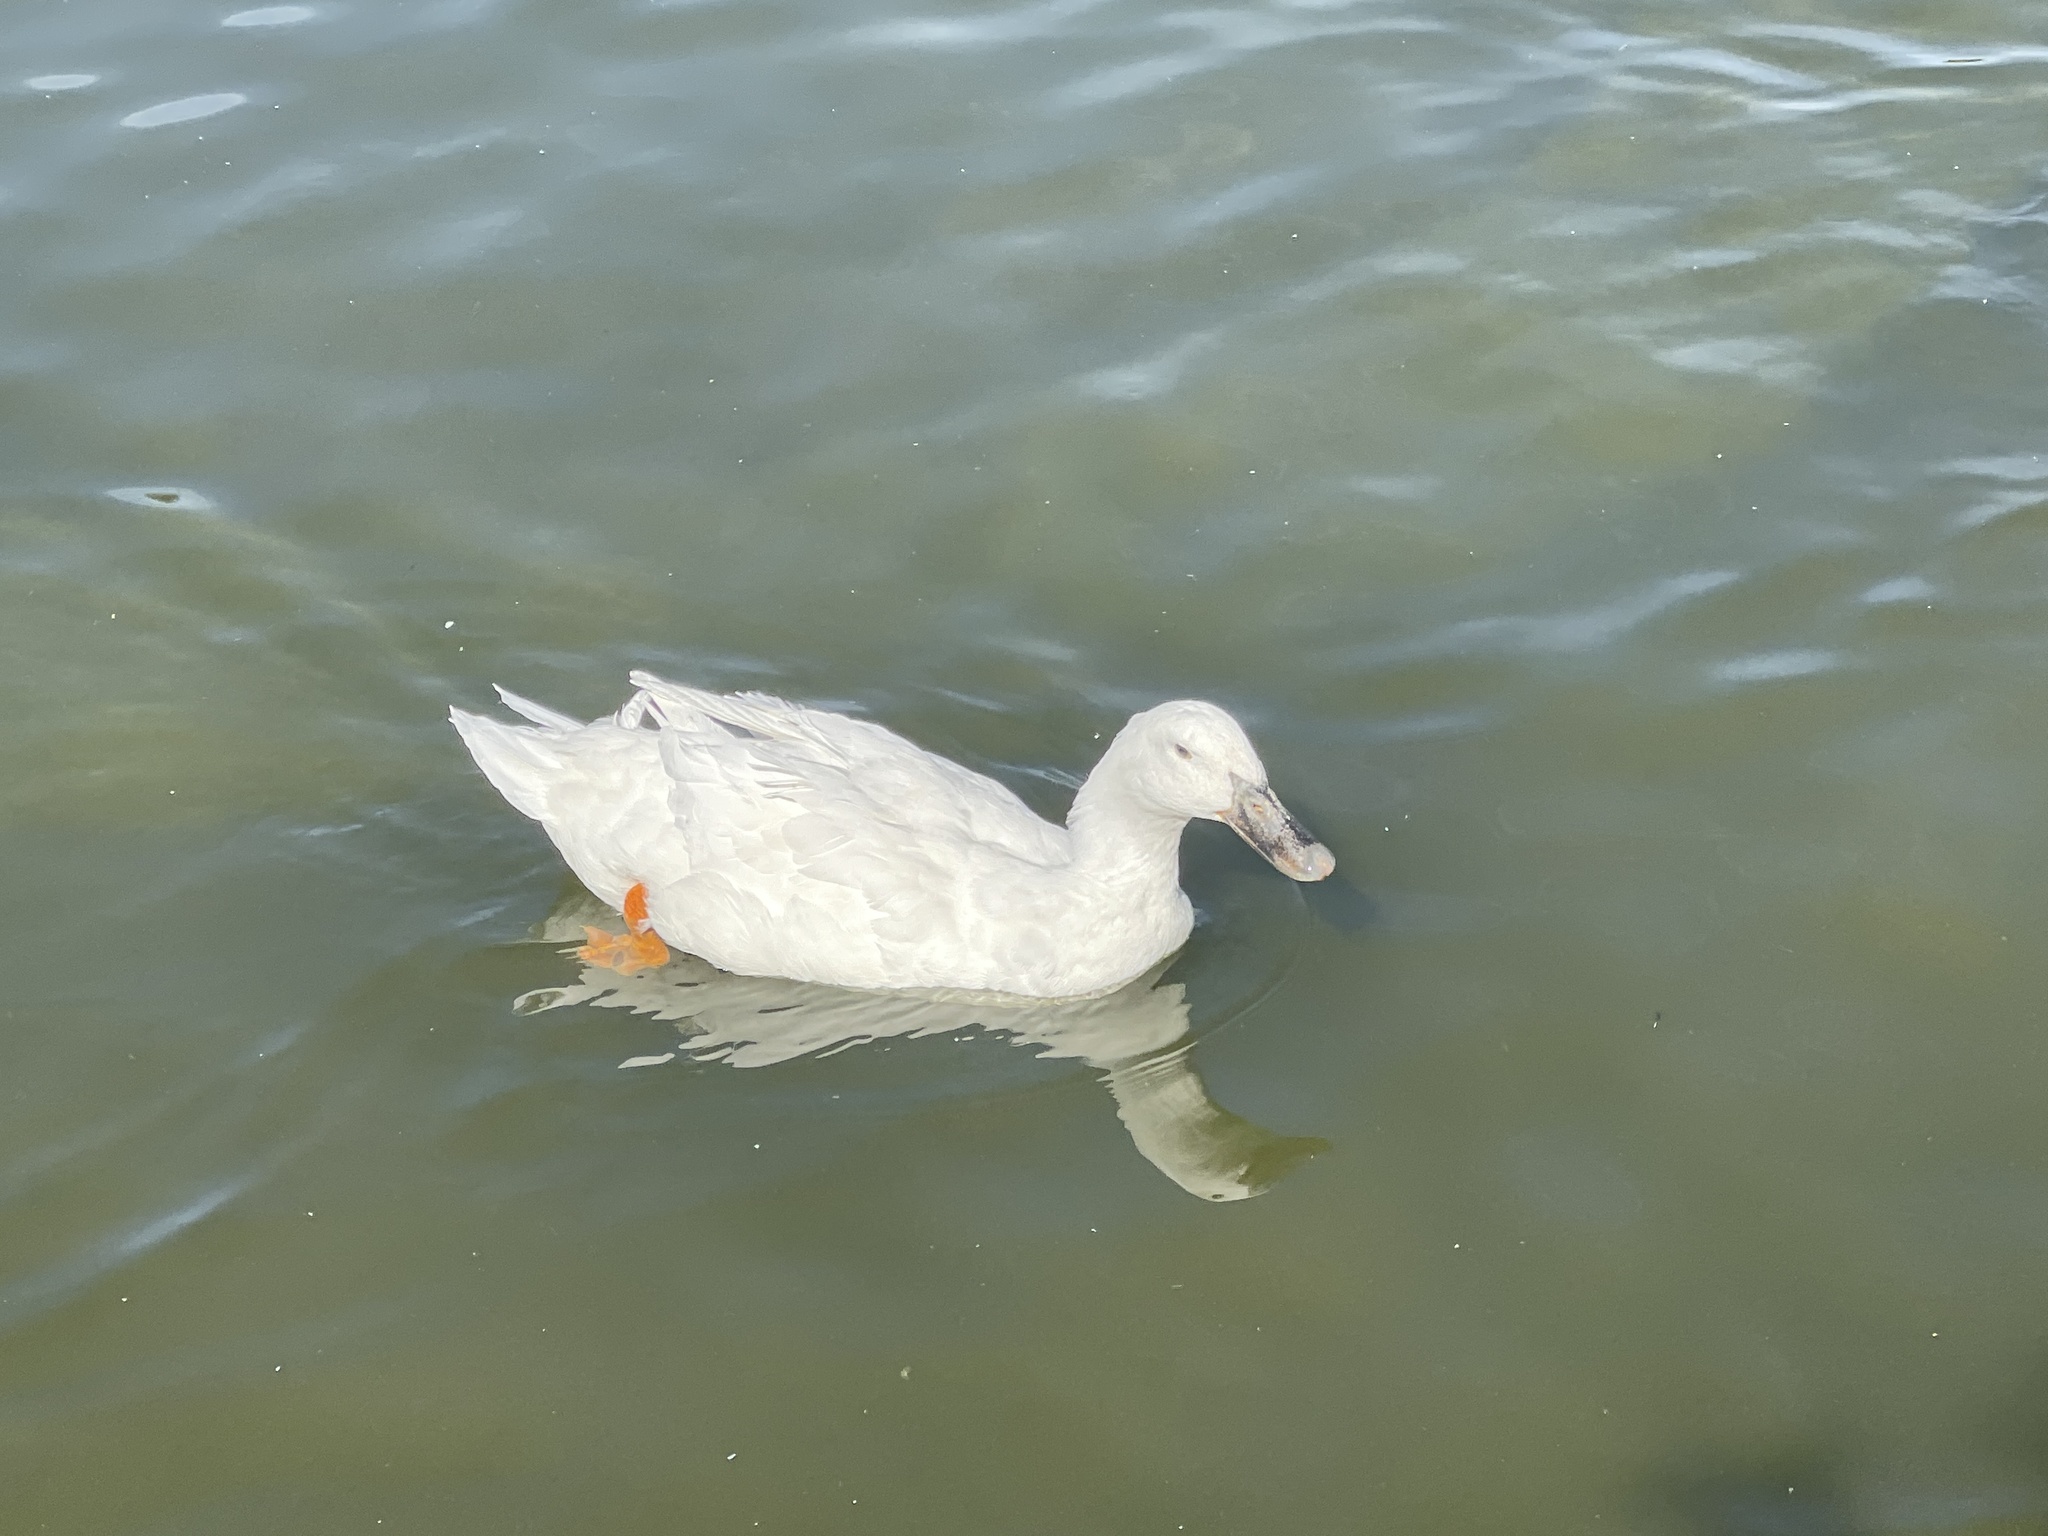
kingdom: Animalia
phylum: Chordata
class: Aves
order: Anseriformes
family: Anatidae
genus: Anas
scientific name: Anas platyrhynchos
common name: Mallard
